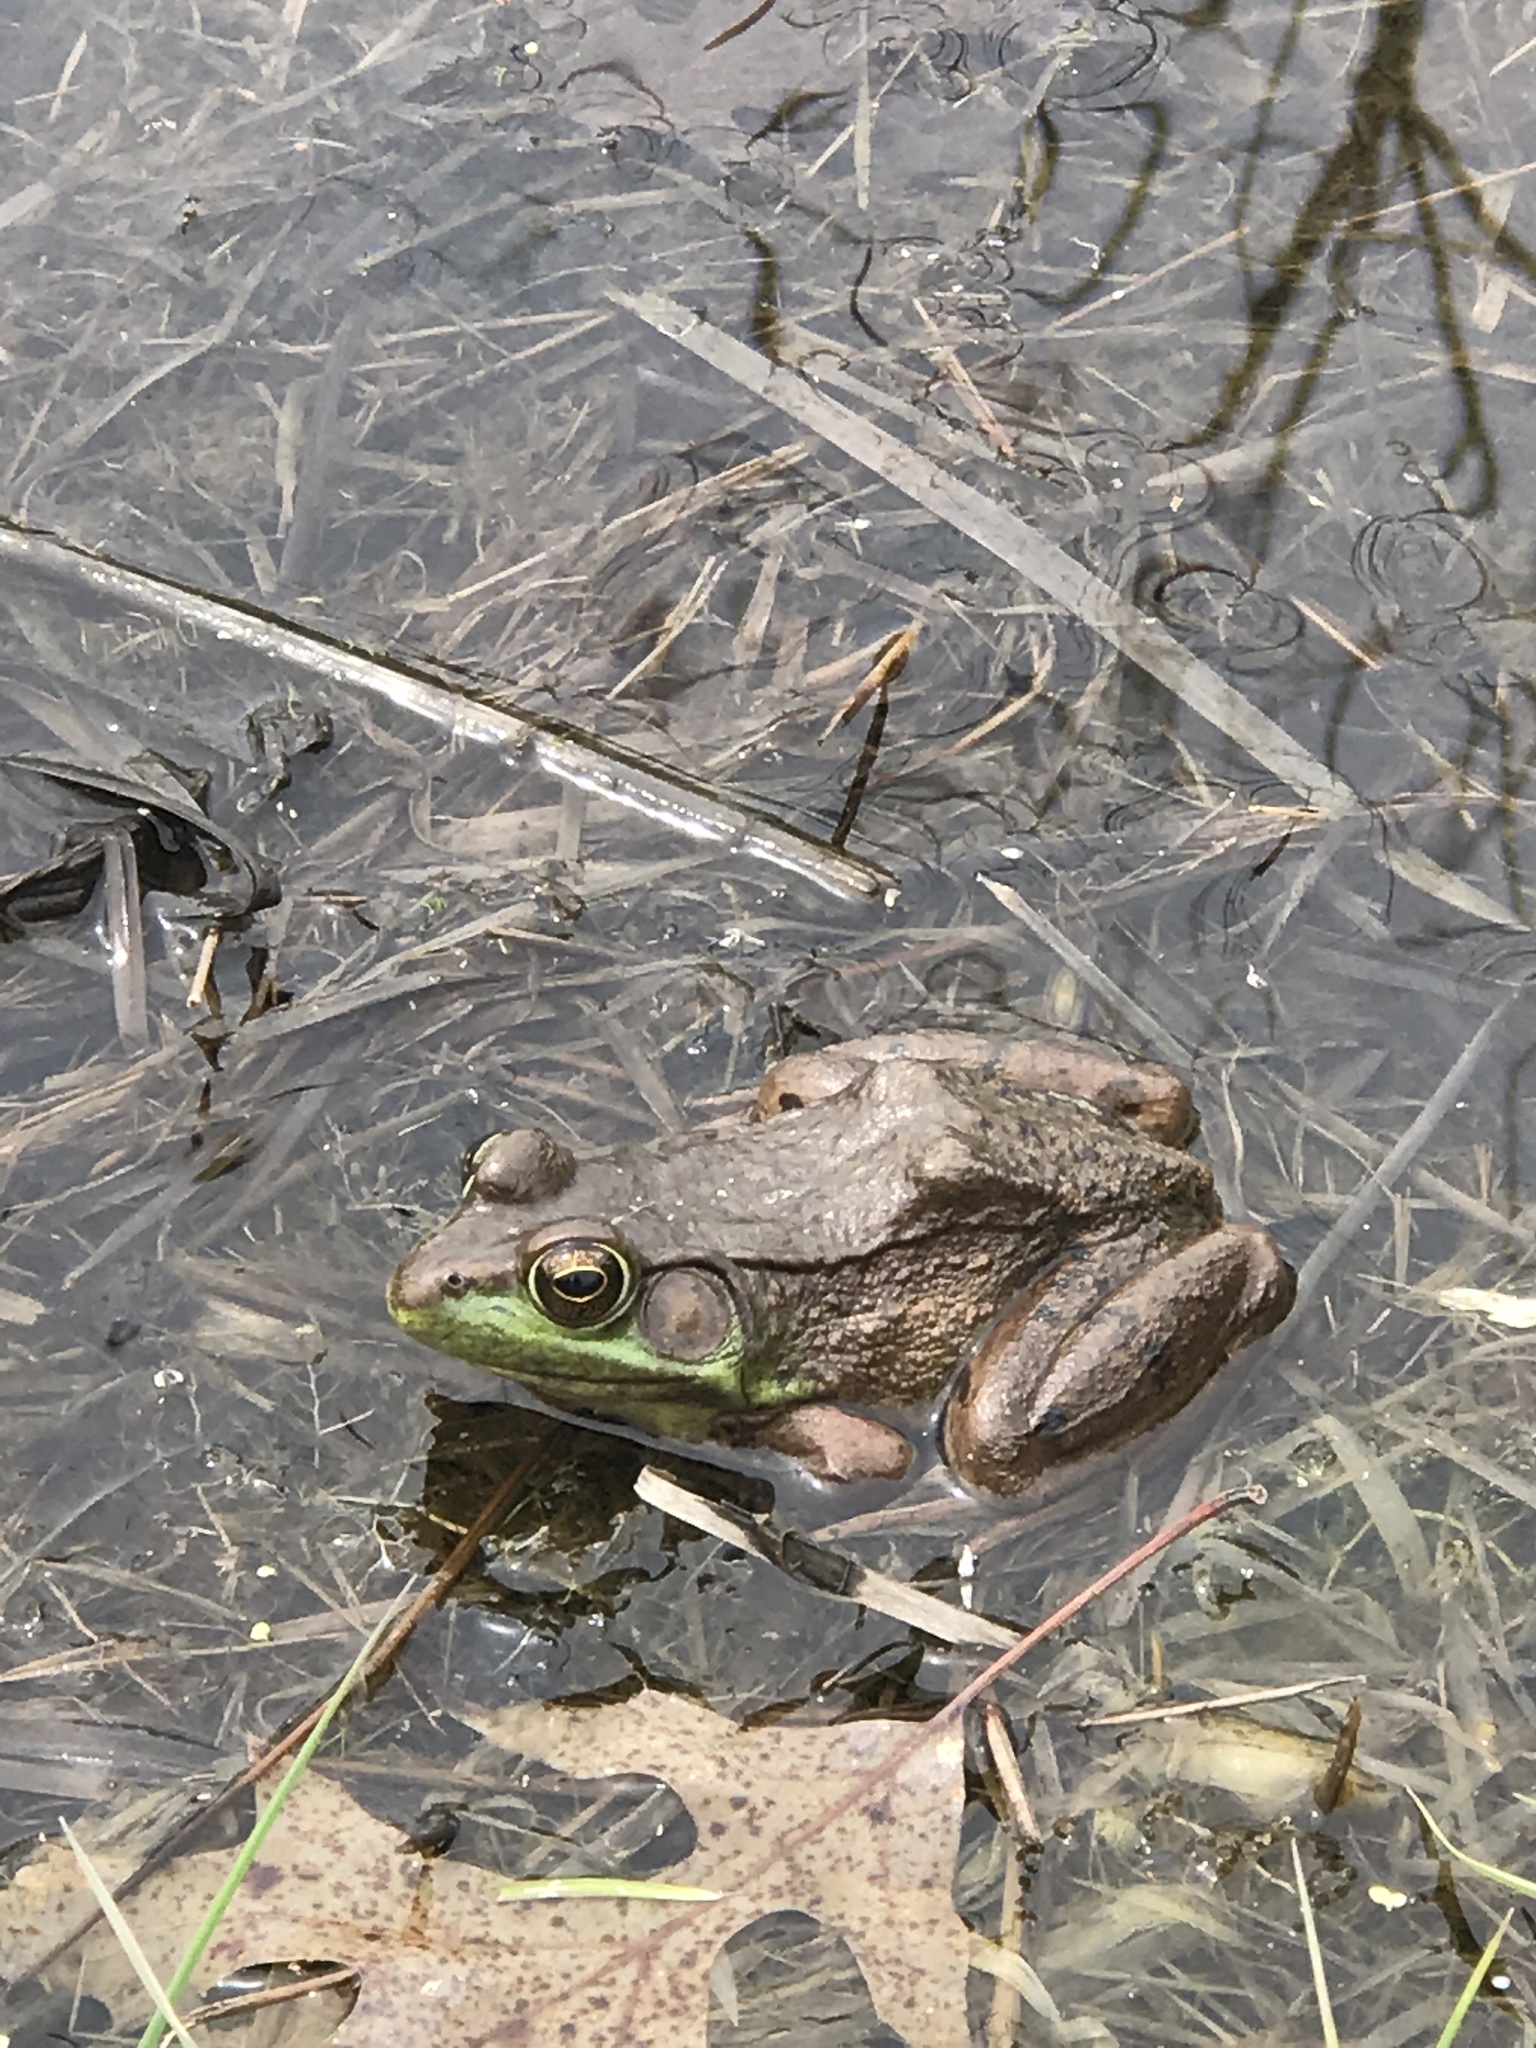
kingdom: Animalia
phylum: Chordata
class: Amphibia
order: Anura
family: Ranidae
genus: Lithobates
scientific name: Lithobates clamitans
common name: Green frog
